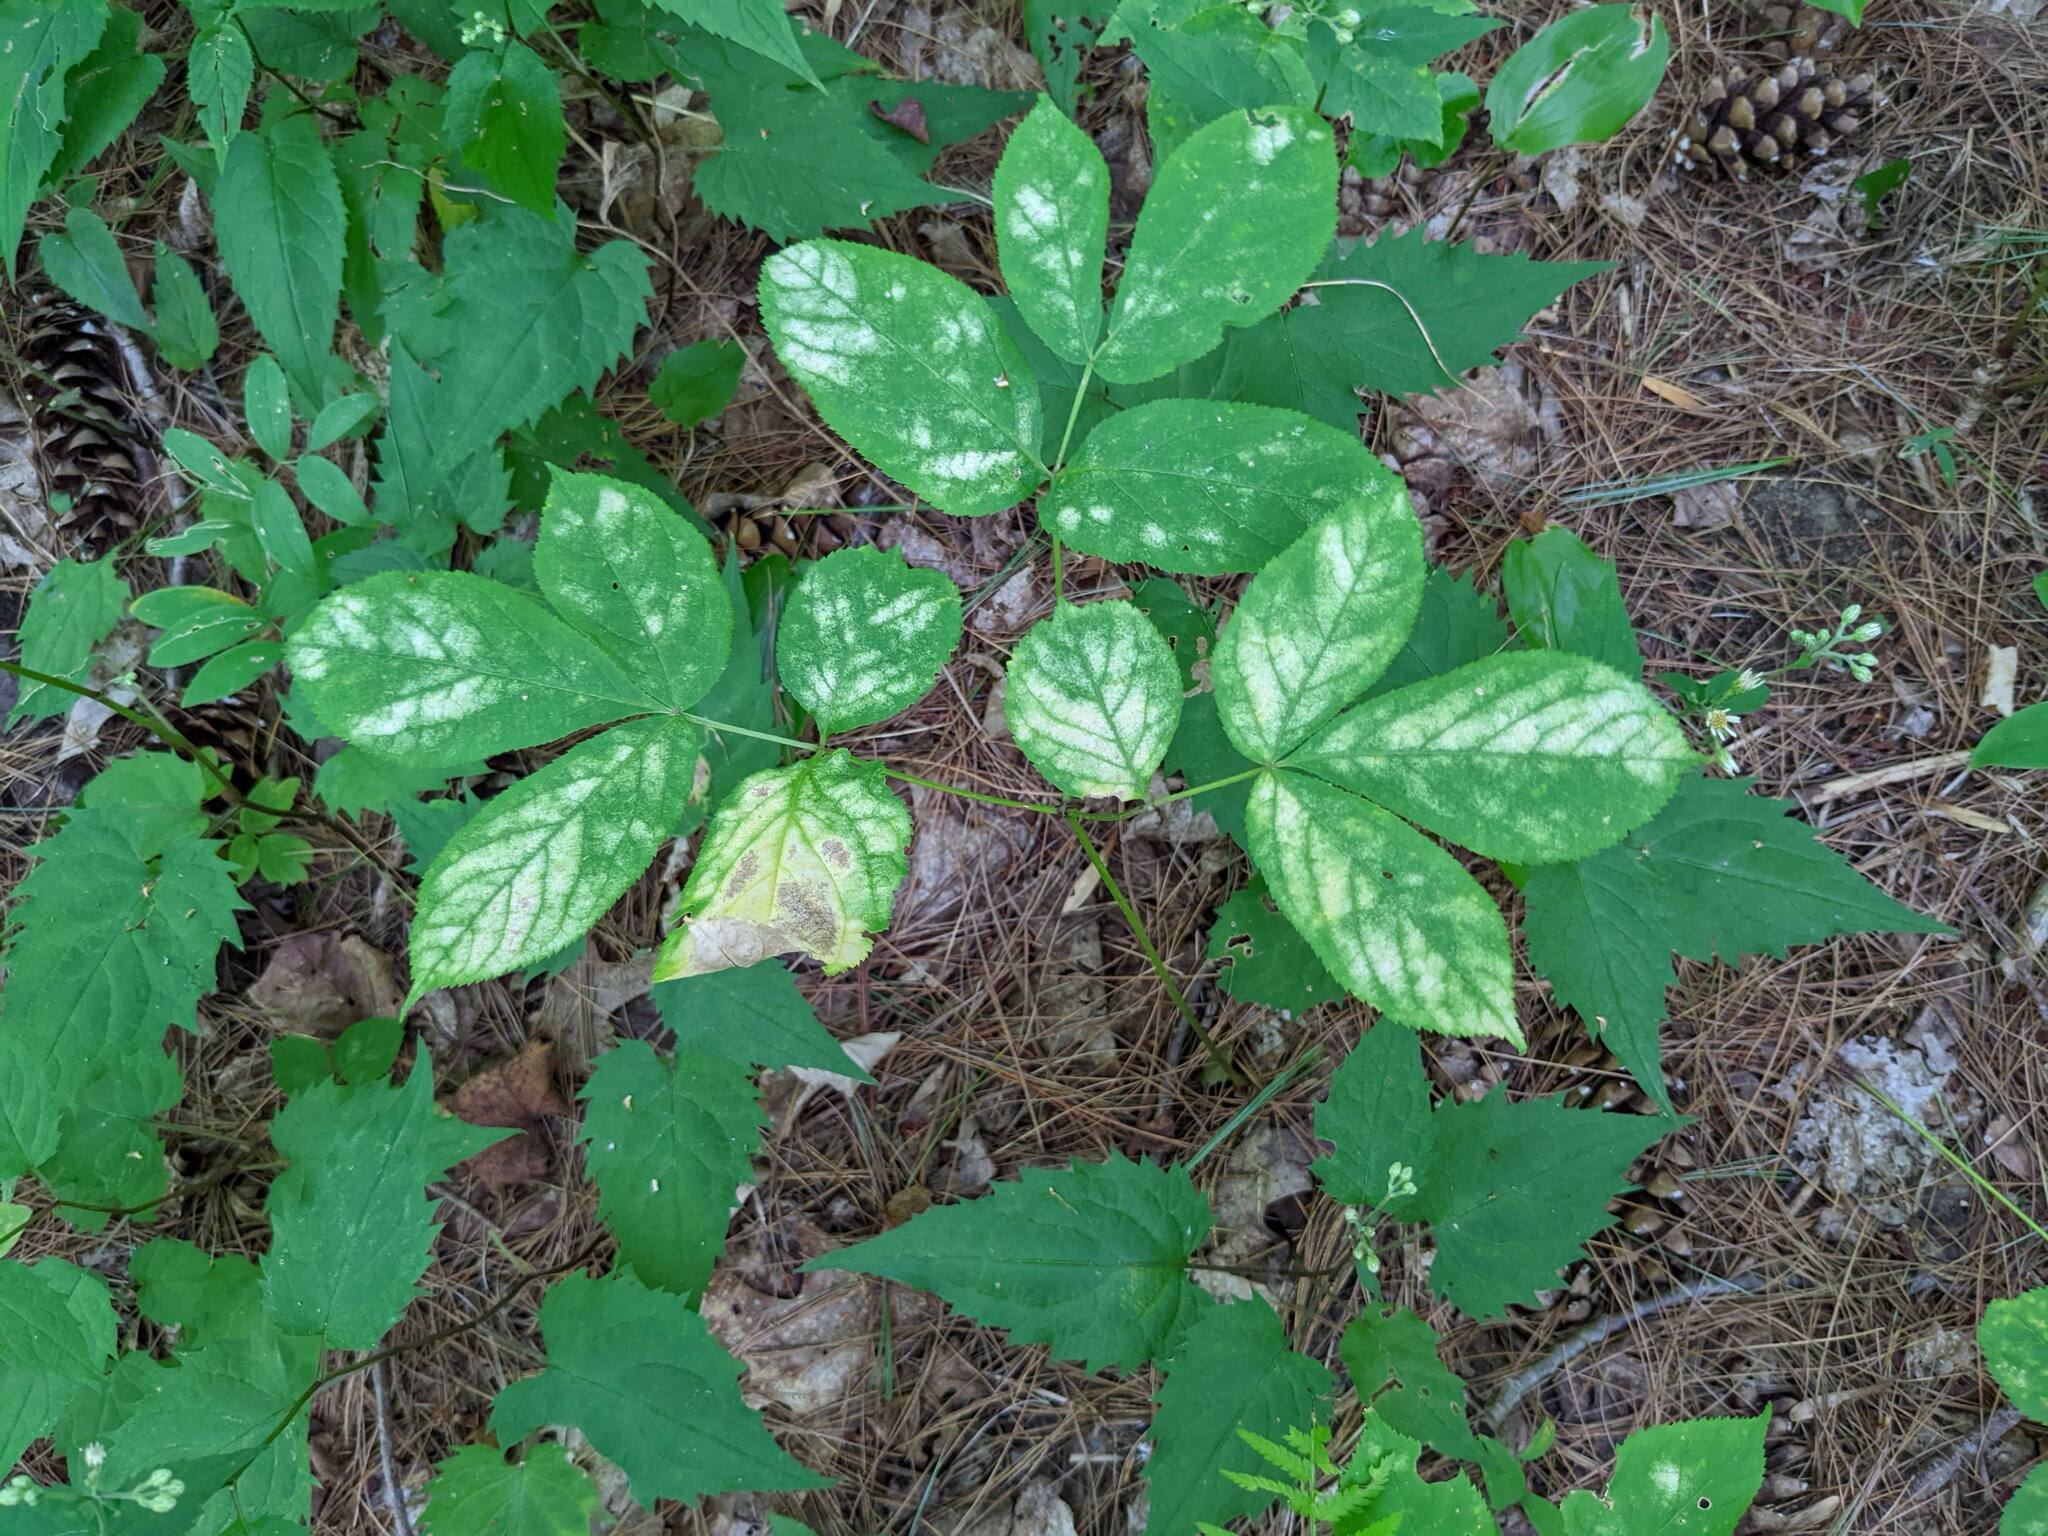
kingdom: Plantae
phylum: Tracheophyta
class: Magnoliopsida
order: Apiales
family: Araliaceae
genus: Aralia
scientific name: Aralia nudicaulis
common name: Wild sarsaparilla
